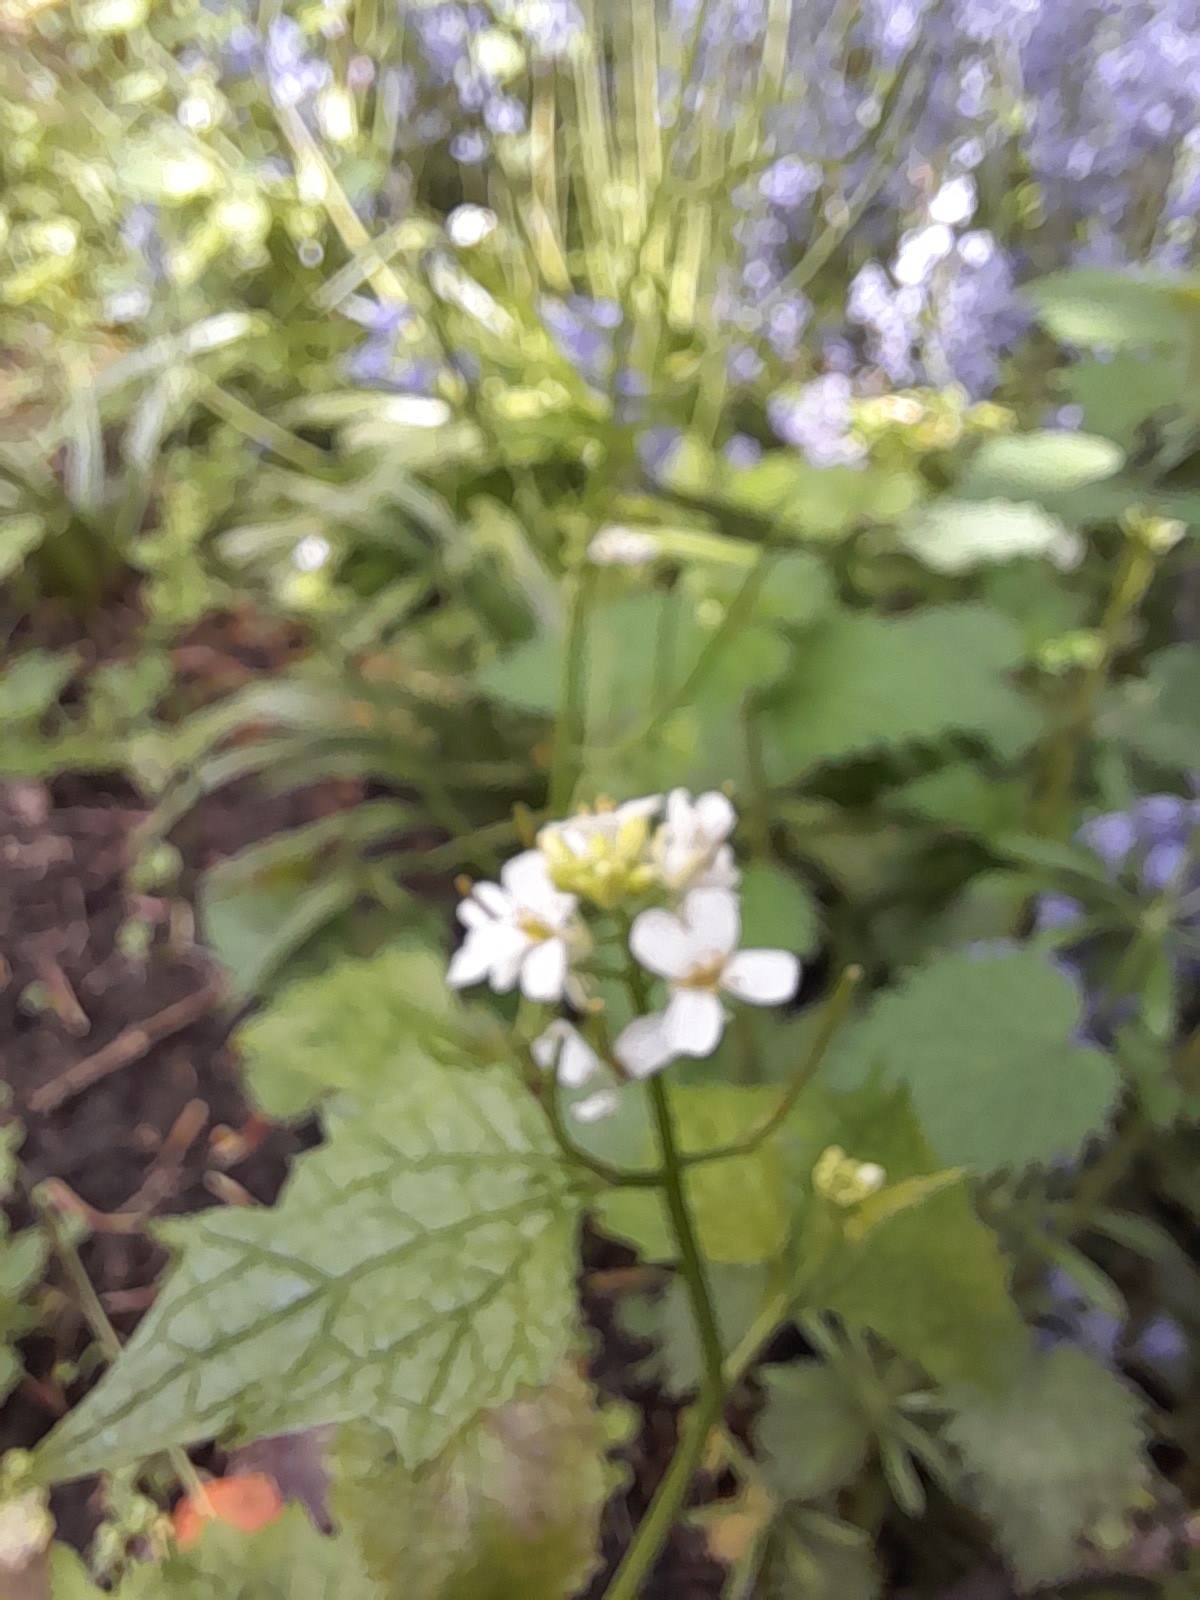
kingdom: Plantae
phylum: Tracheophyta
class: Magnoliopsida
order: Brassicales
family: Brassicaceae
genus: Alliaria
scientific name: Alliaria petiolata
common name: Garlic mustard
